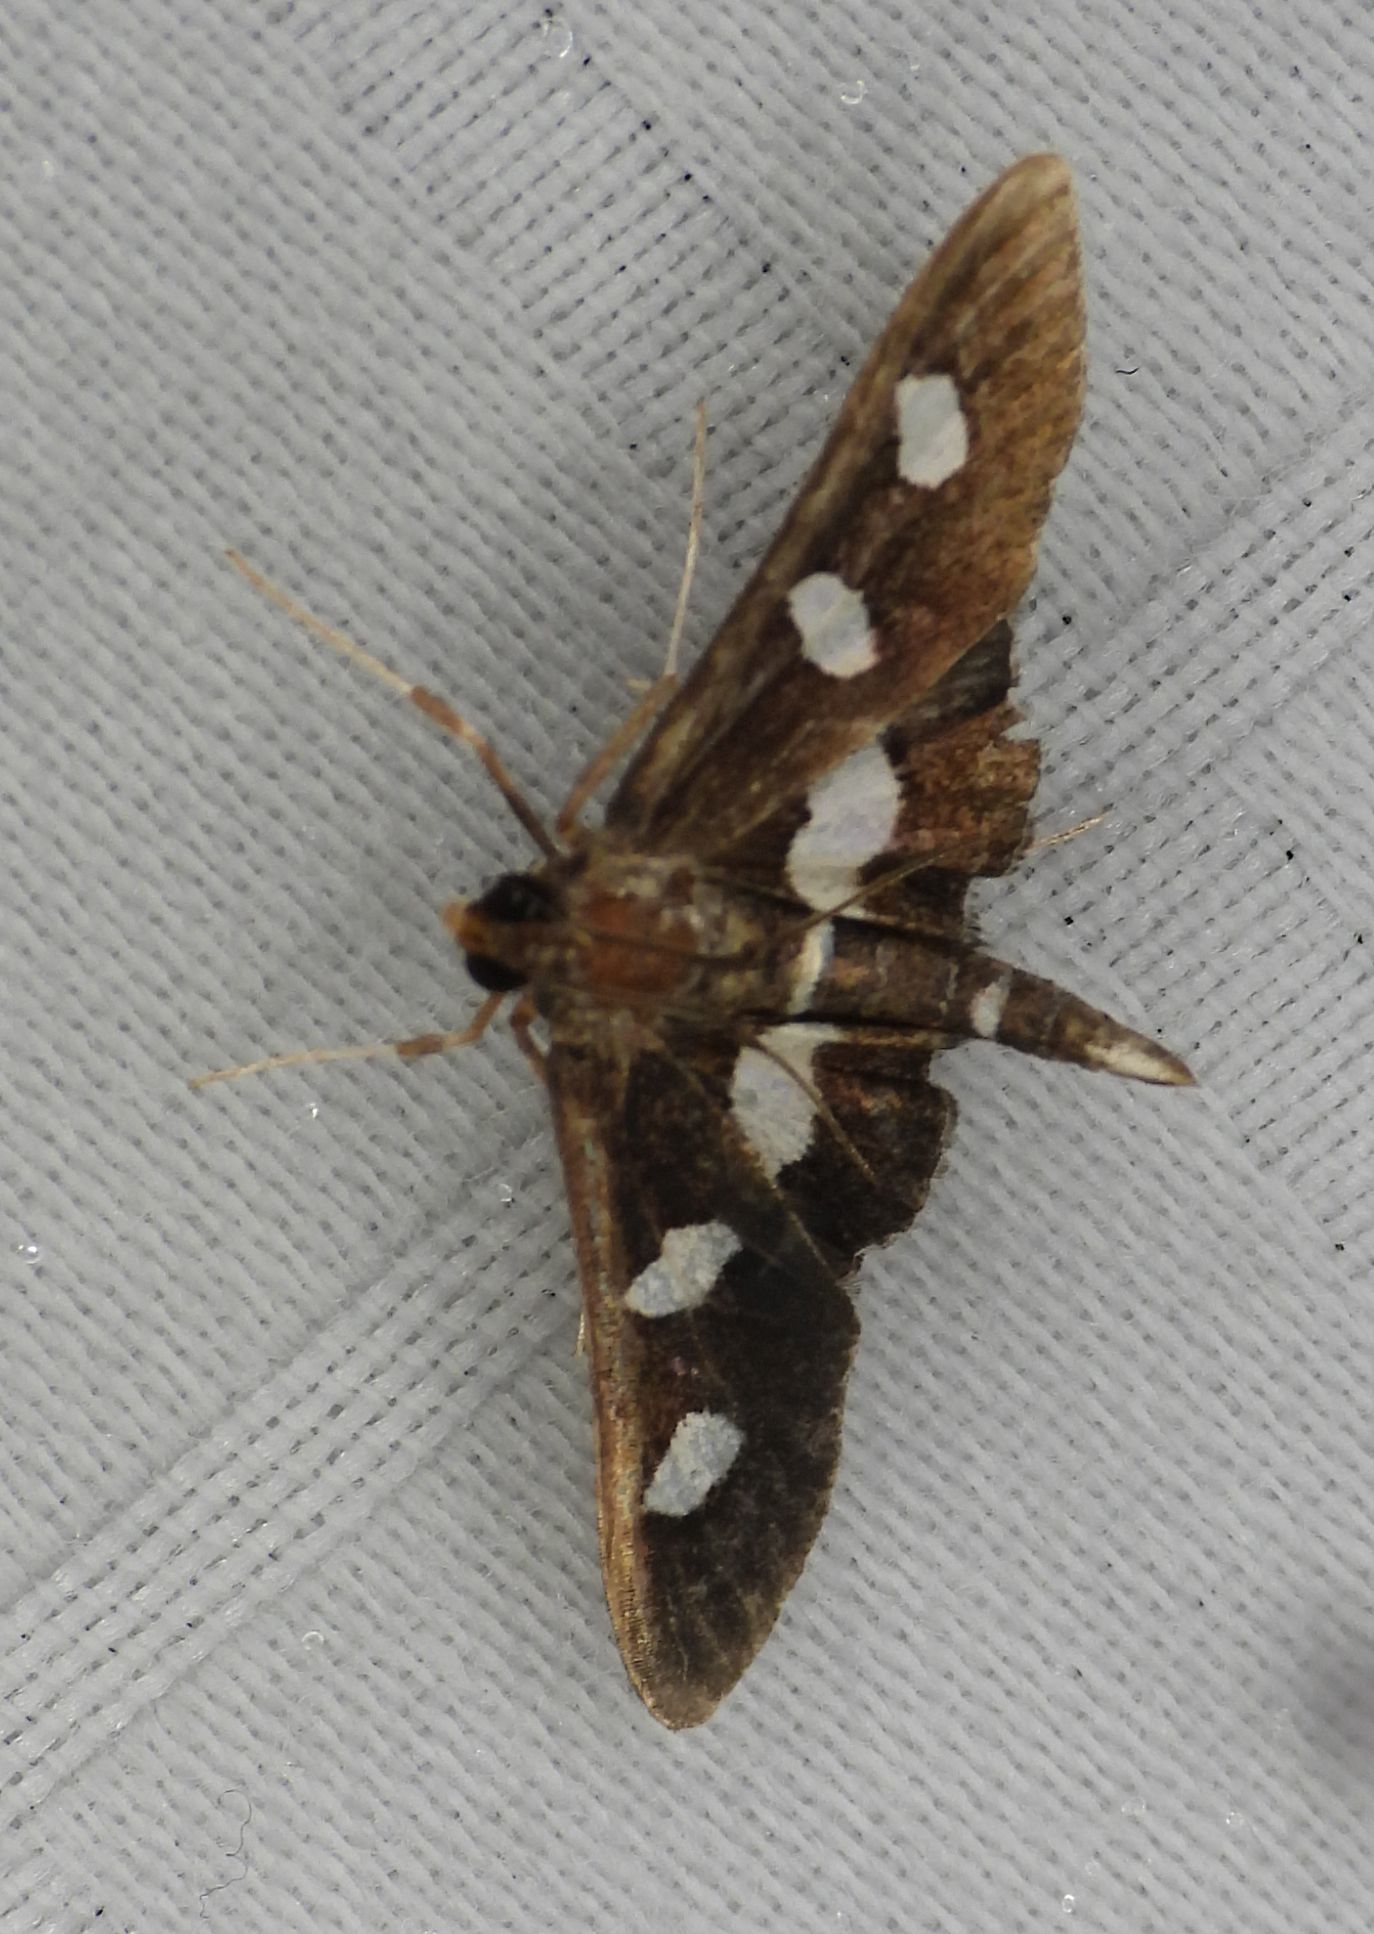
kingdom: Animalia
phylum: Arthropoda
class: Insecta
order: Lepidoptera
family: Crambidae
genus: Desmia
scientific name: Desmia
